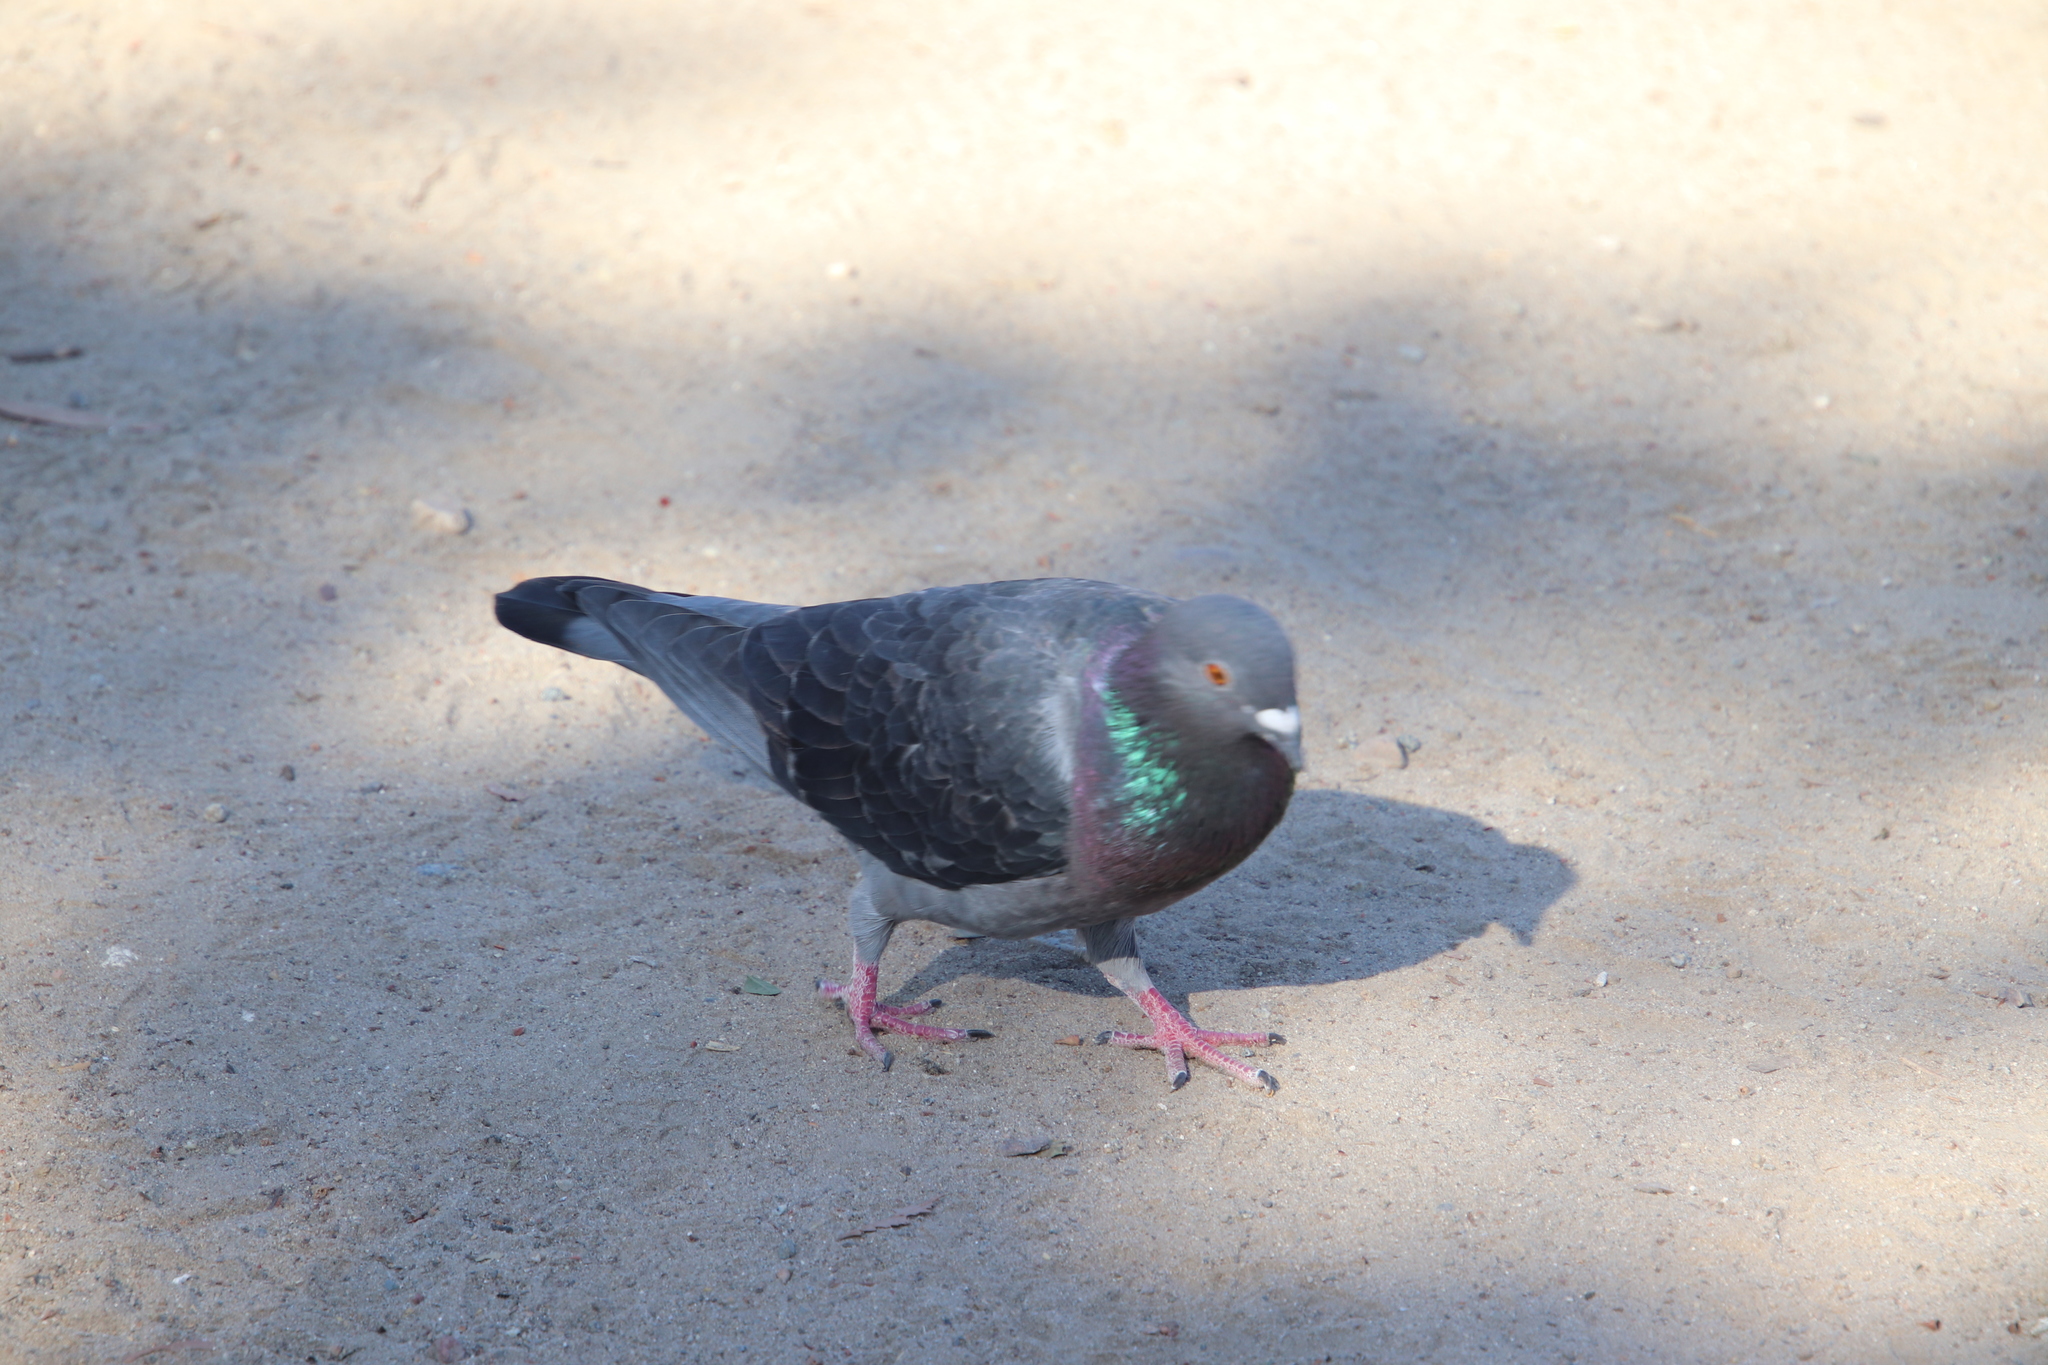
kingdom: Animalia
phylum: Chordata
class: Aves
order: Columbiformes
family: Columbidae
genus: Columba
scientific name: Columba livia
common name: Rock pigeon
